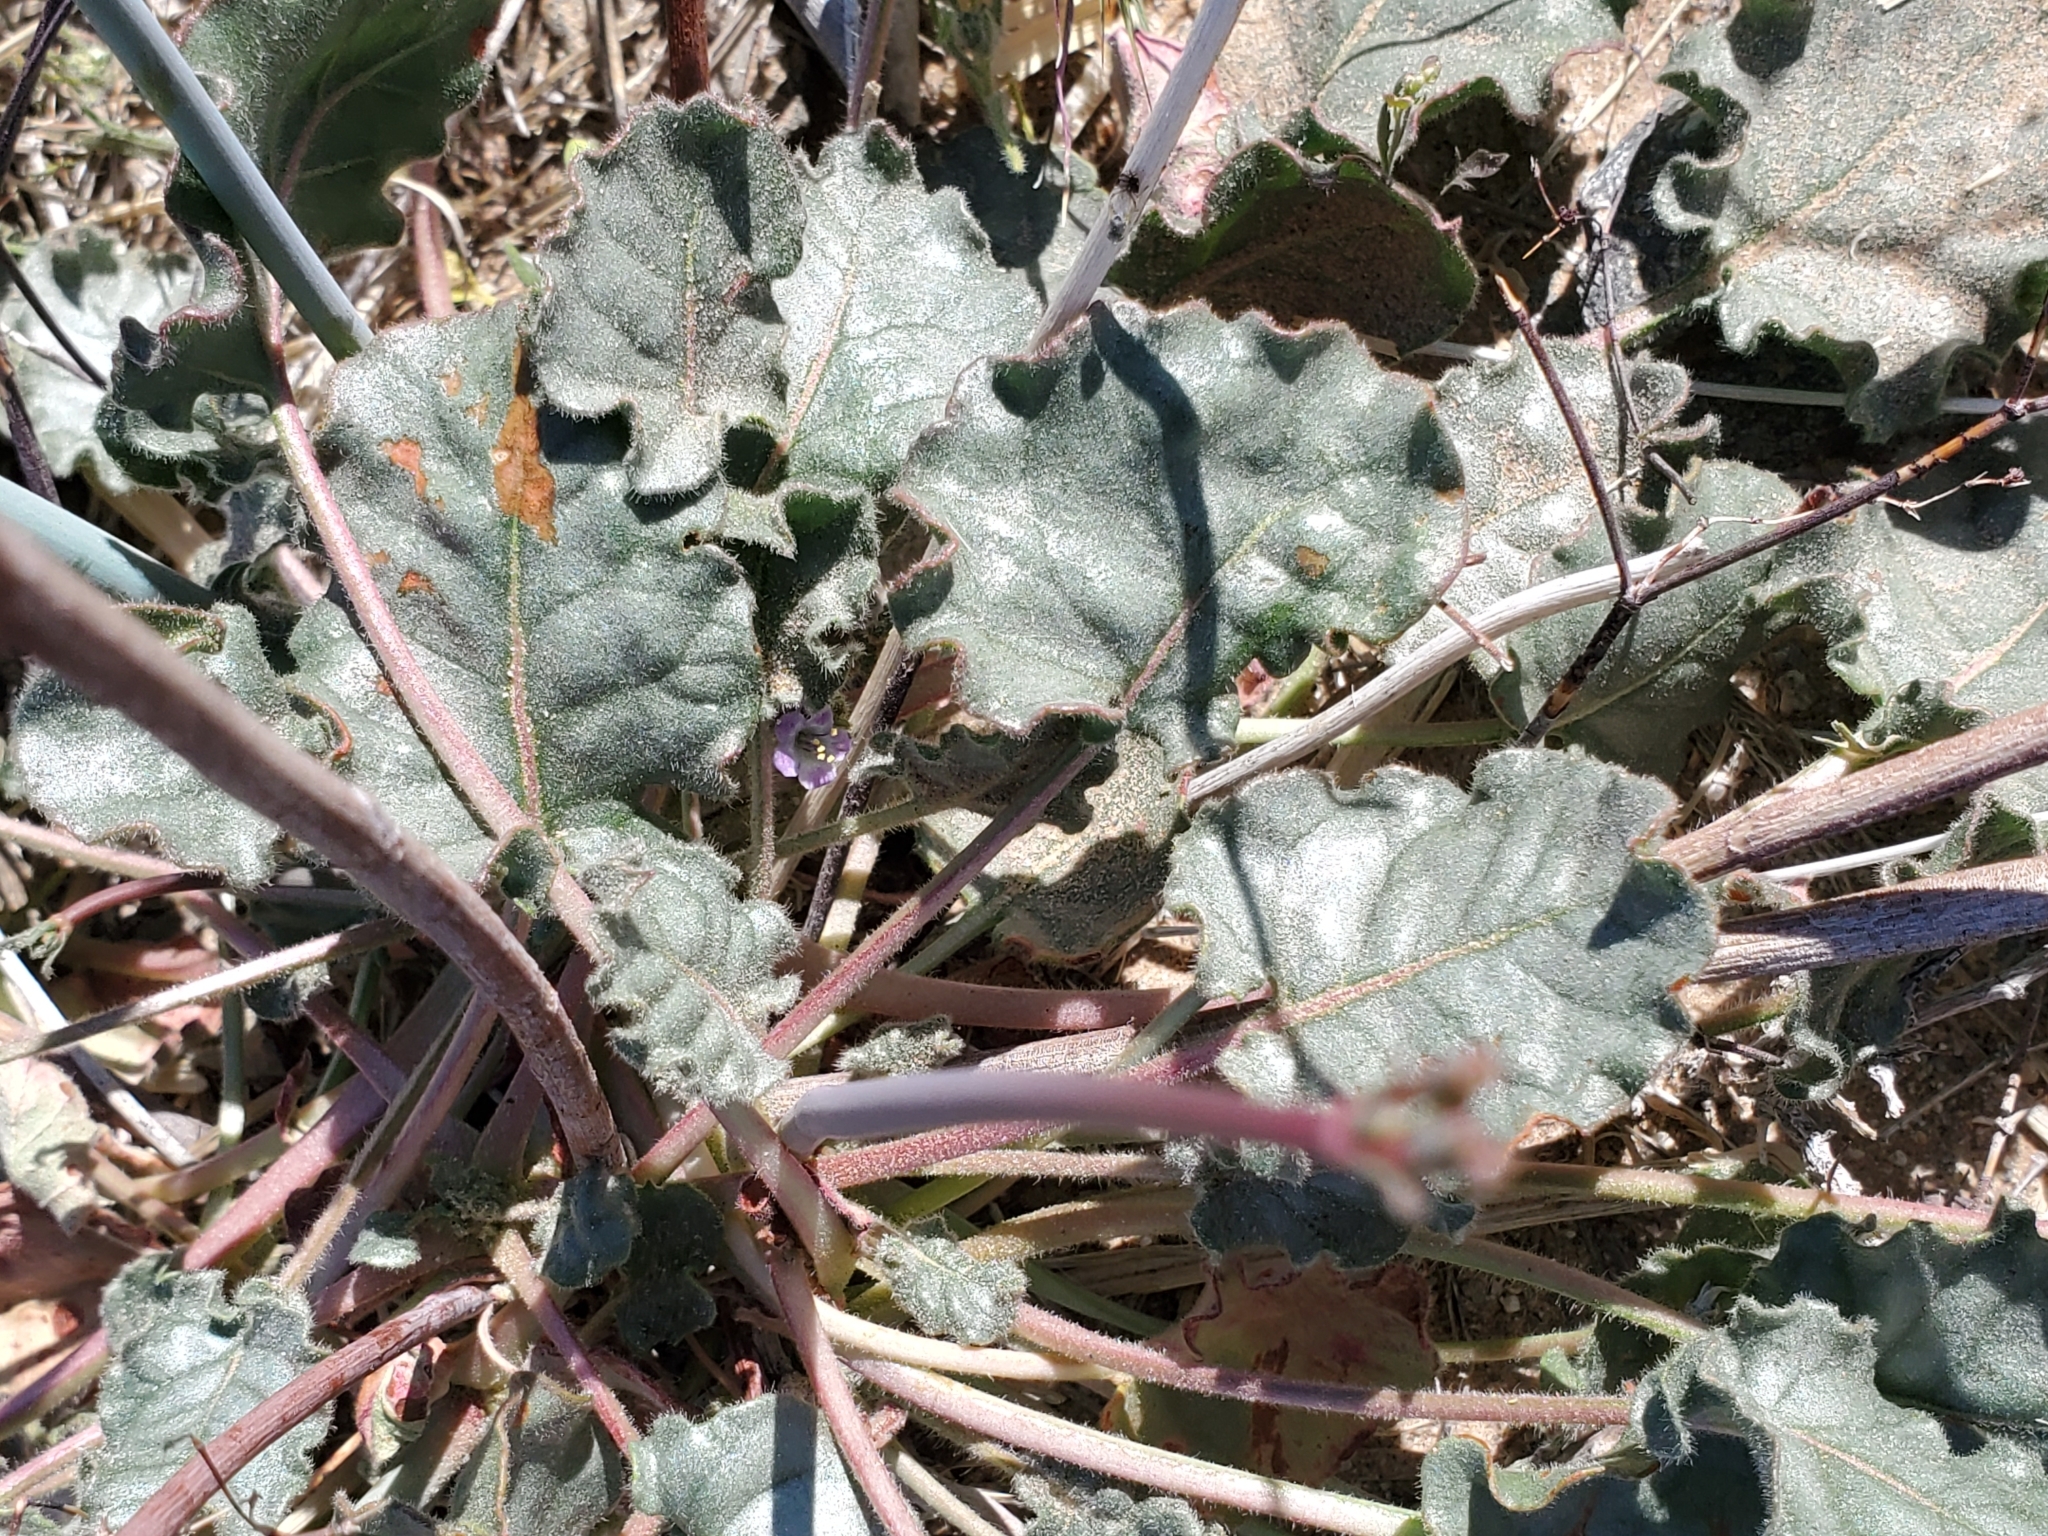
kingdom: Plantae
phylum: Tracheophyta
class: Magnoliopsida
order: Caryophyllales
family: Polygonaceae
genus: Eriogonum
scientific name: Eriogonum inflatum
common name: Desert trumpet
